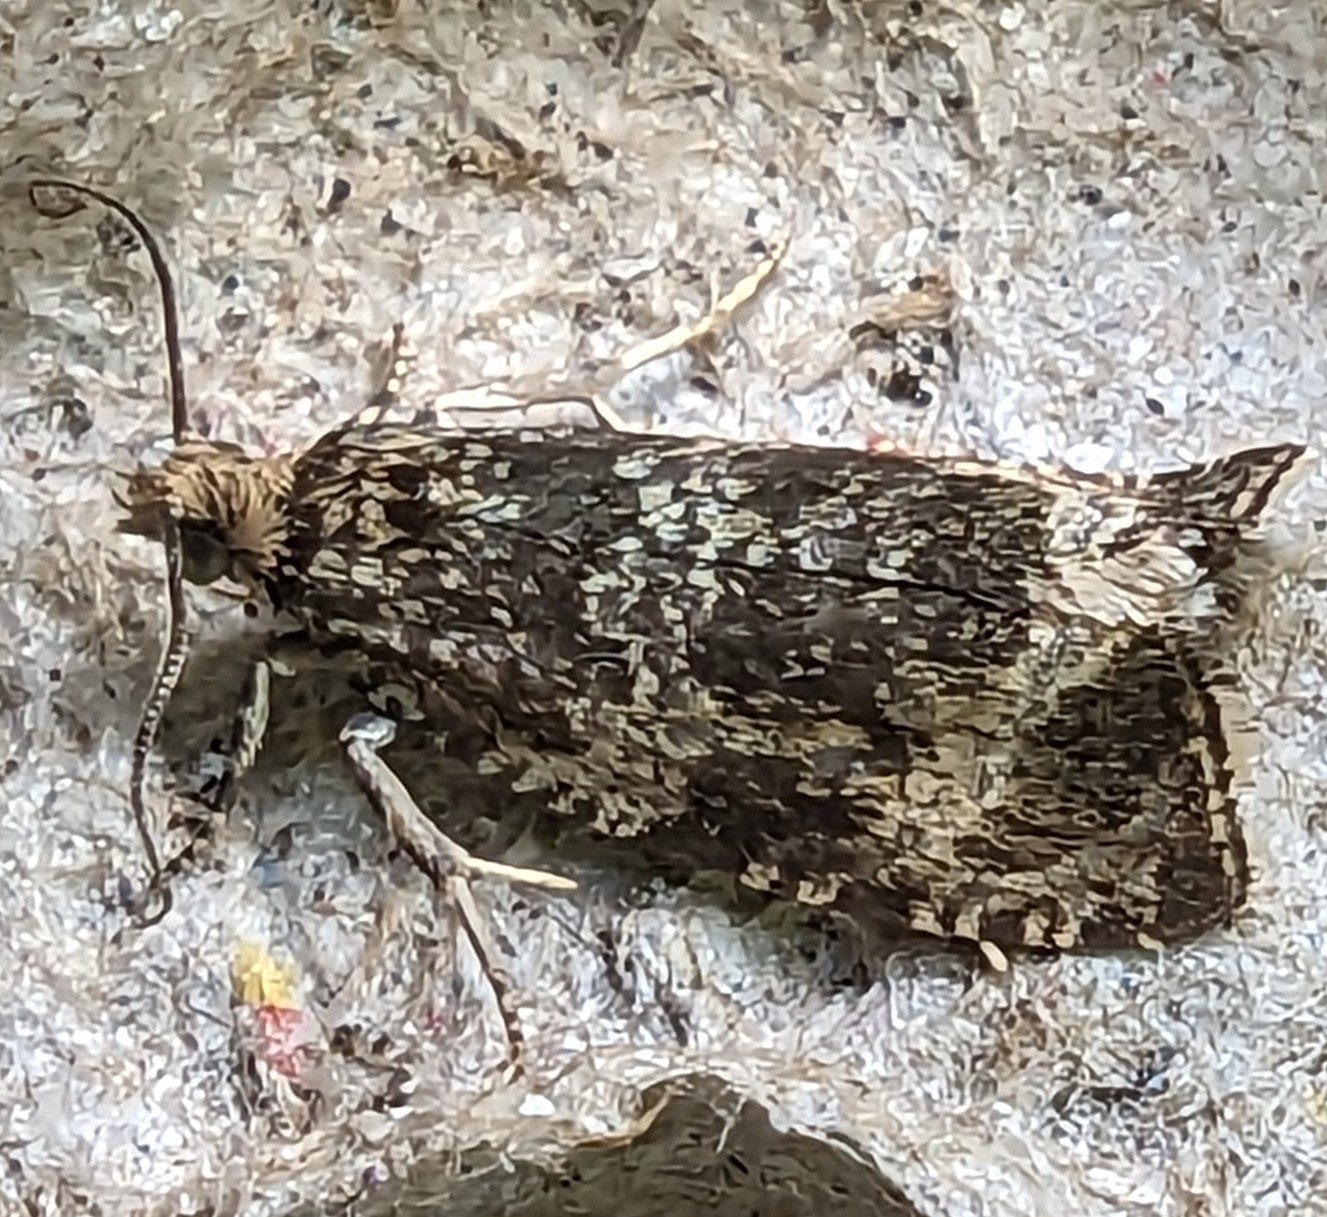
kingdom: Animalia
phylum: Arthropoda
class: Insecta
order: Lepidoptera
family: Tortricidae
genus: Syricoris
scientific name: Syricoris lacunana
